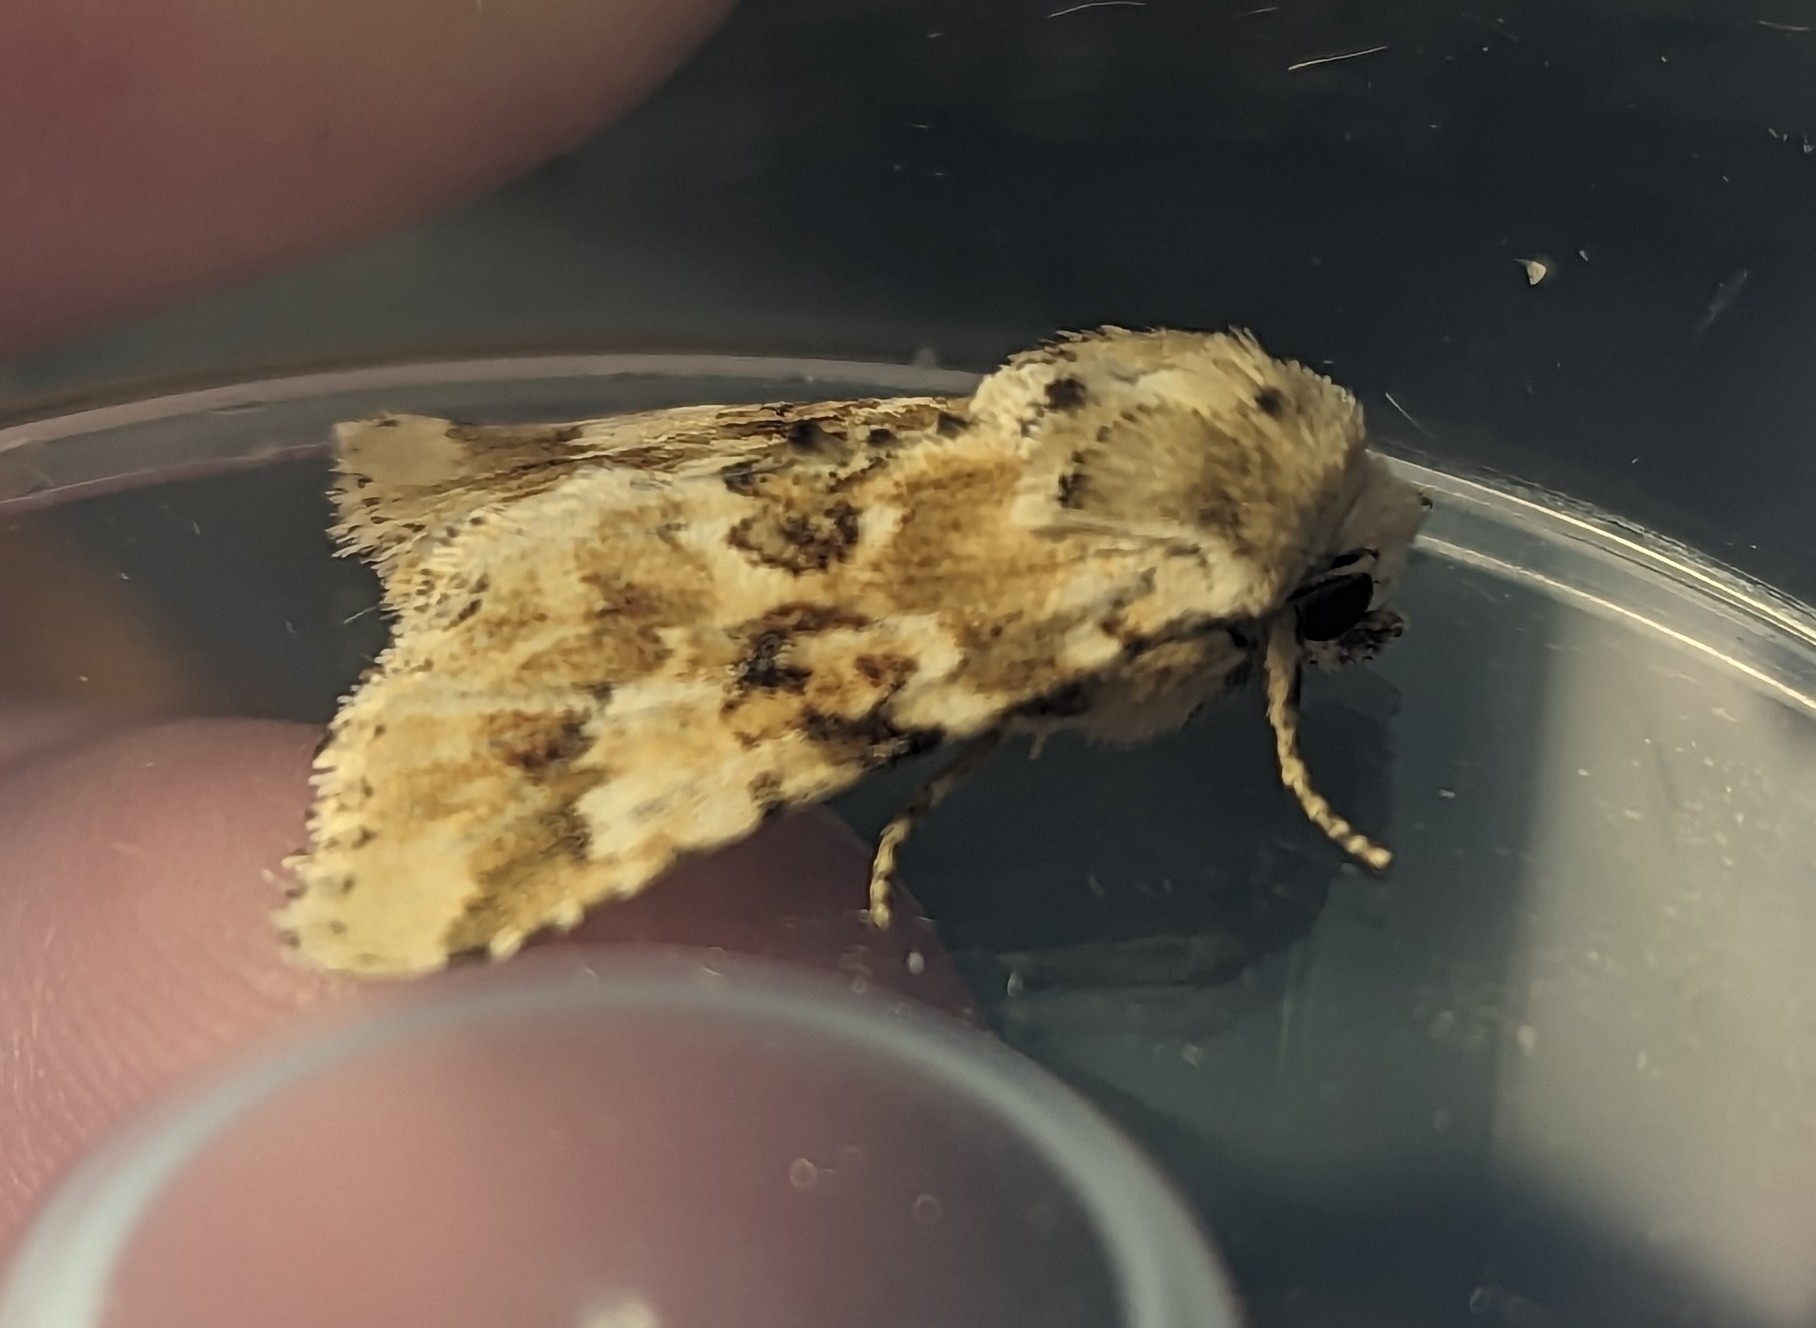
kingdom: Animalia
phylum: Arthropoda
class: Insecta
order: Lepidoptera
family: Noctuidae
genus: Eremobia
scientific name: Eremobia ochroleuca
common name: Dusky sallow
